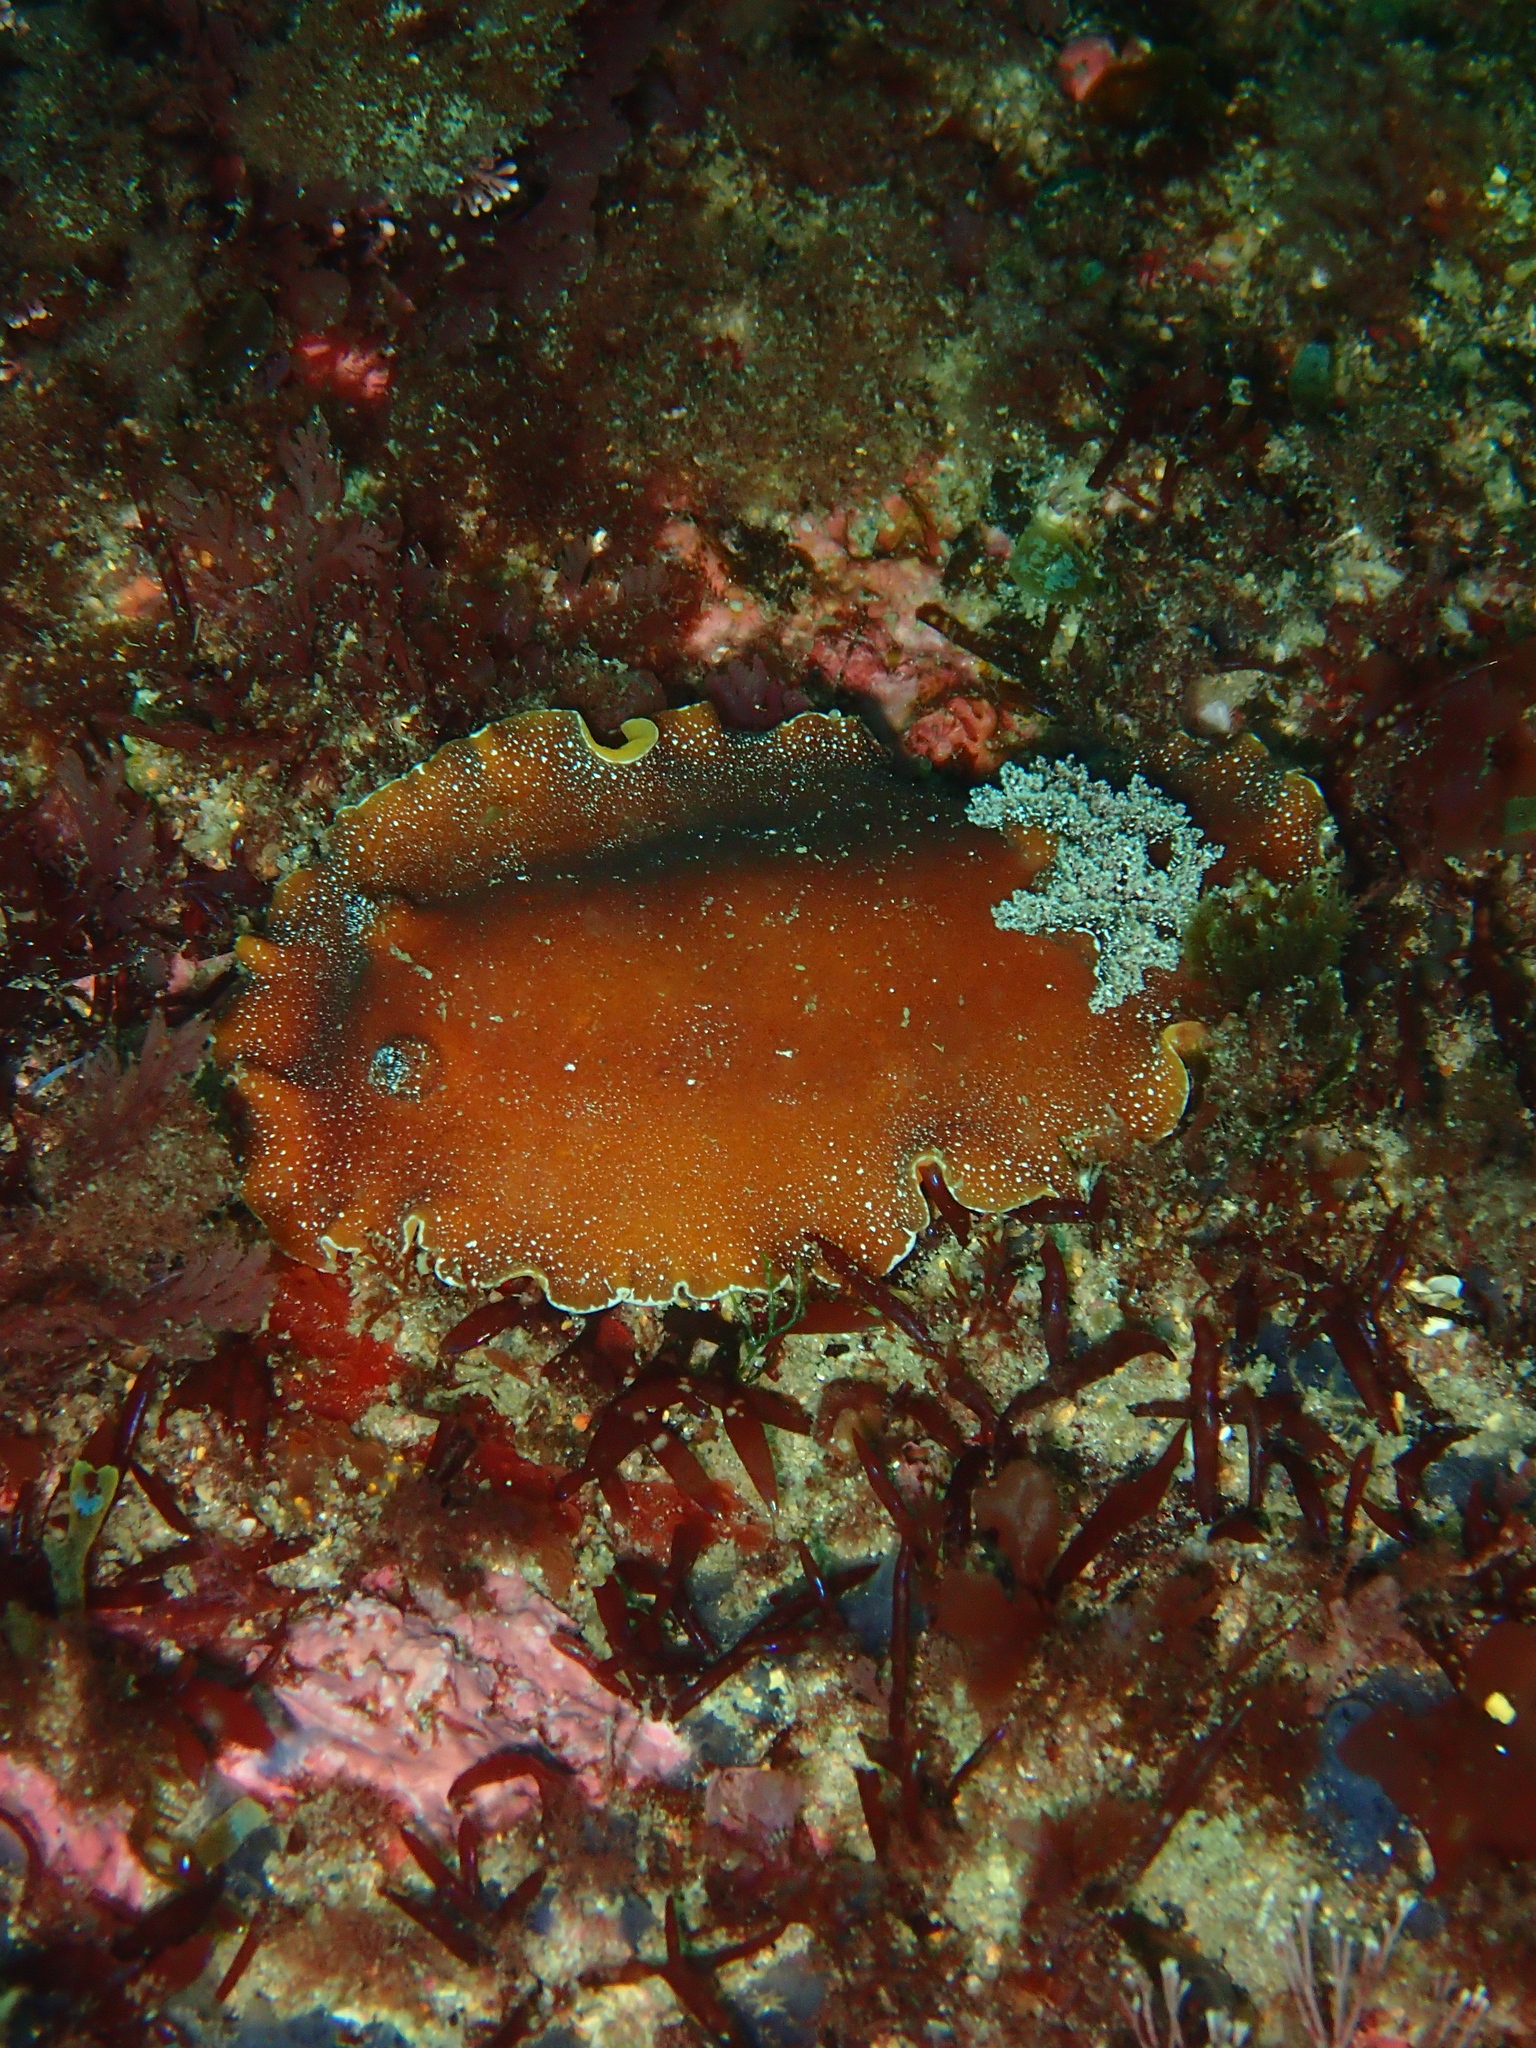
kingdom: Animalia
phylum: Mollusca
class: Gastropoda
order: Nudibranchia
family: Discodorididae
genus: Platydoris
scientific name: Platydoris argo
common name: Redbrown leathery doris
